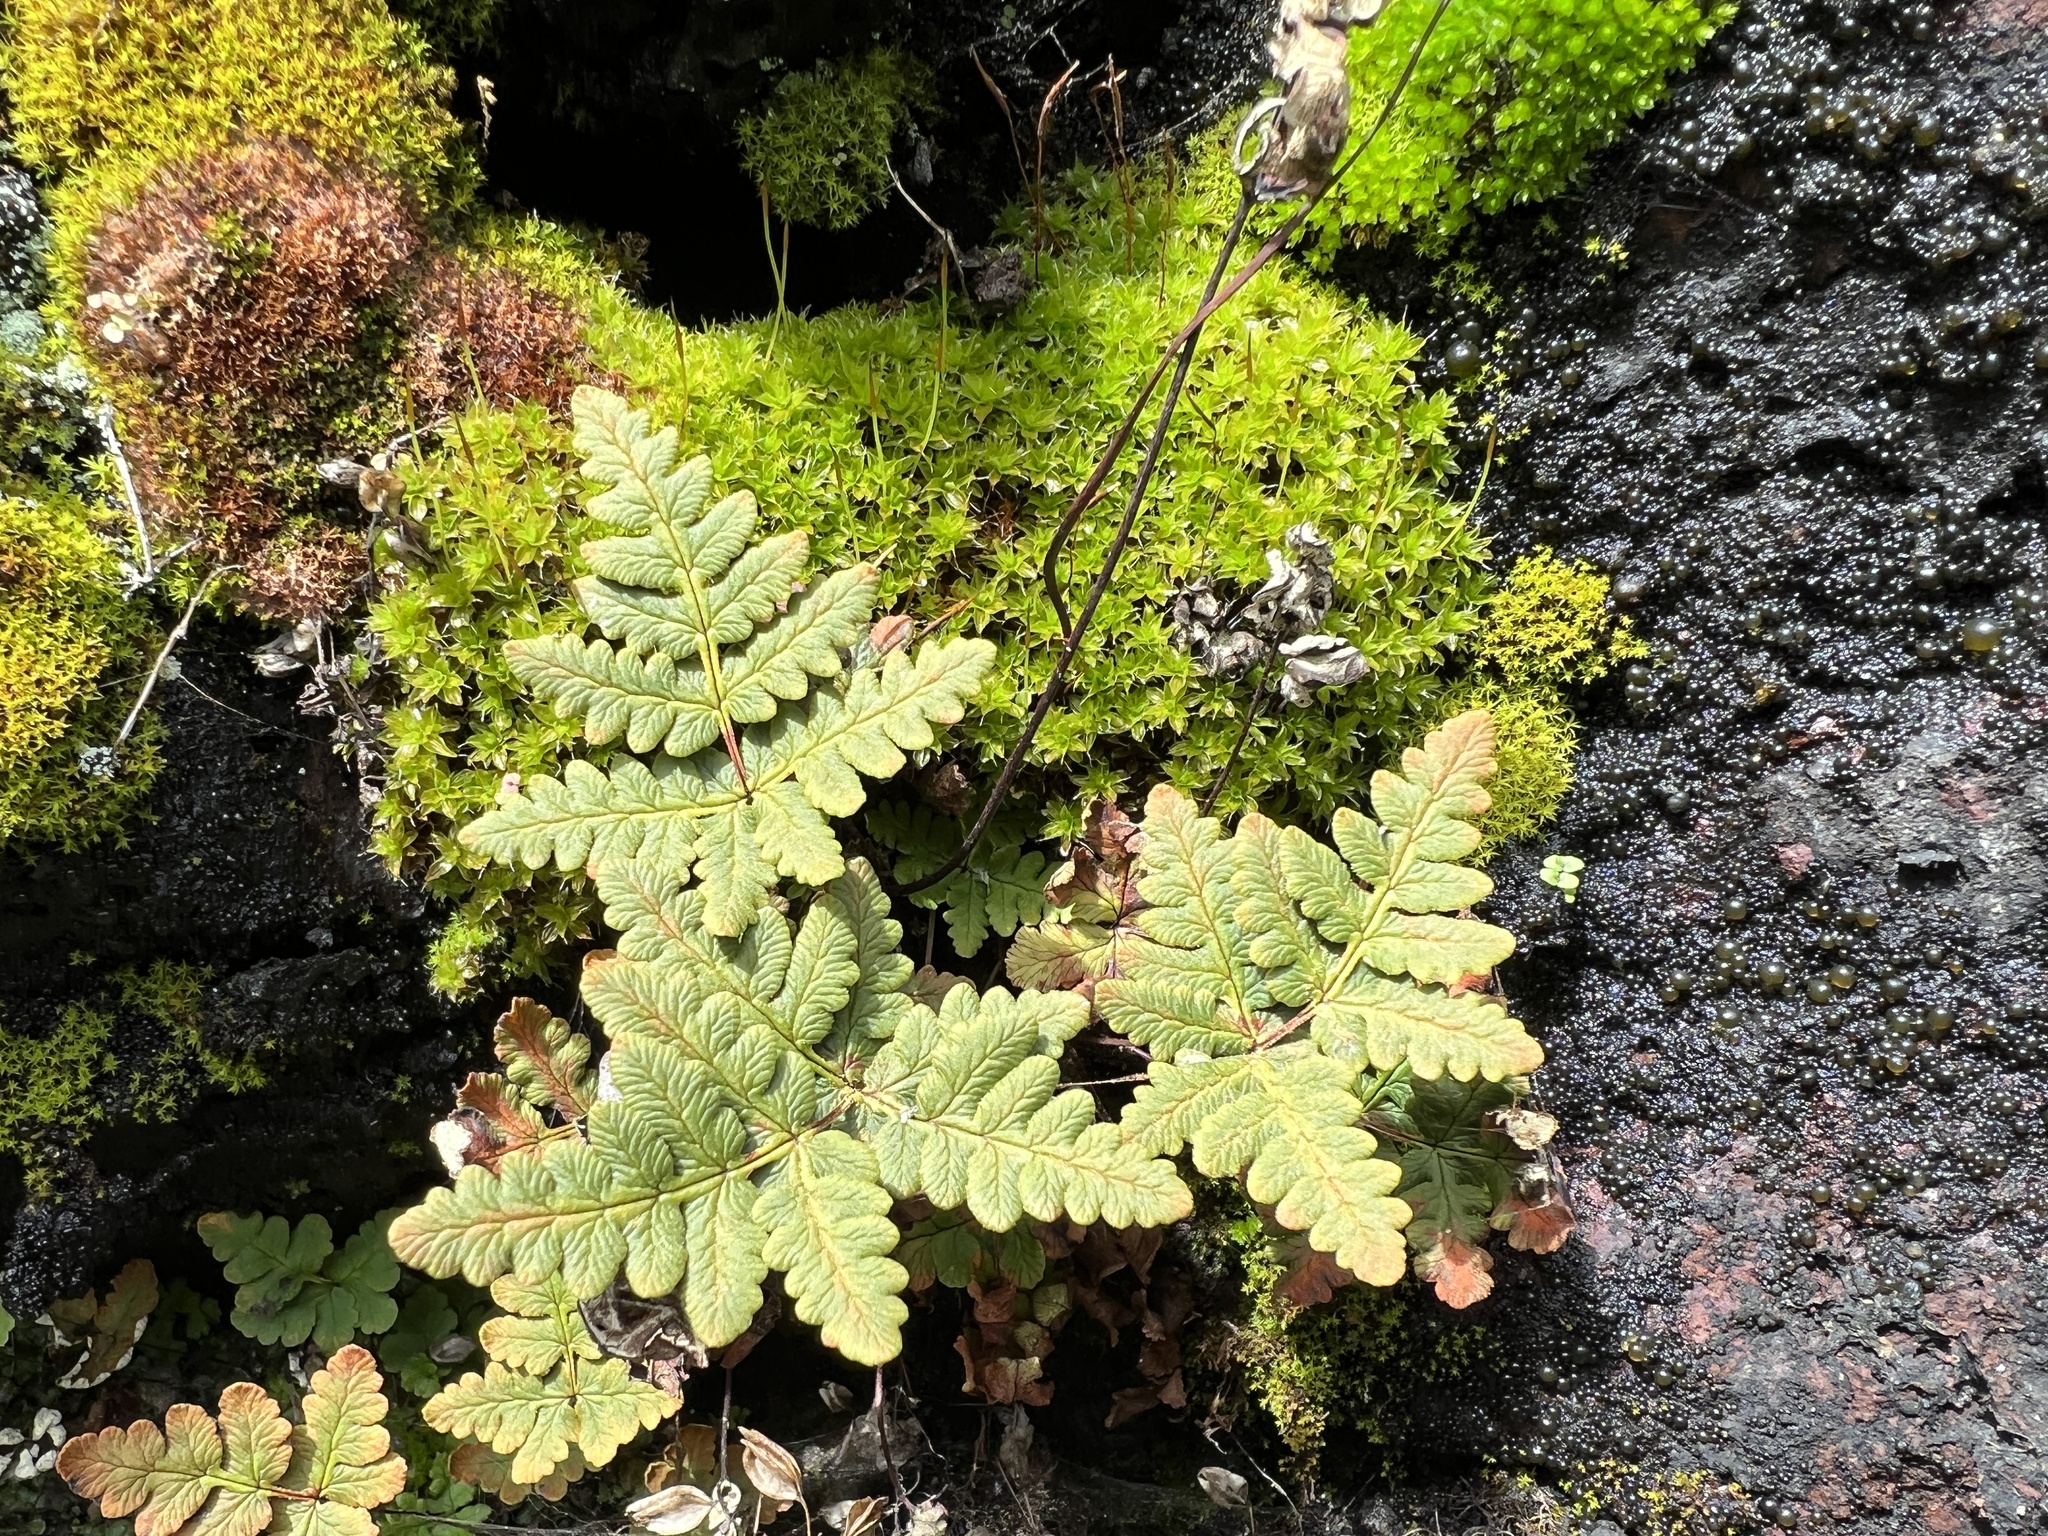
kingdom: Plantae
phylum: Tracheophyta
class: Polypodiopsida
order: Polypodiales
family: Pteridaceae
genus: Pentagramma
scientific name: Pentagramma triangularis
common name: Gold fern
